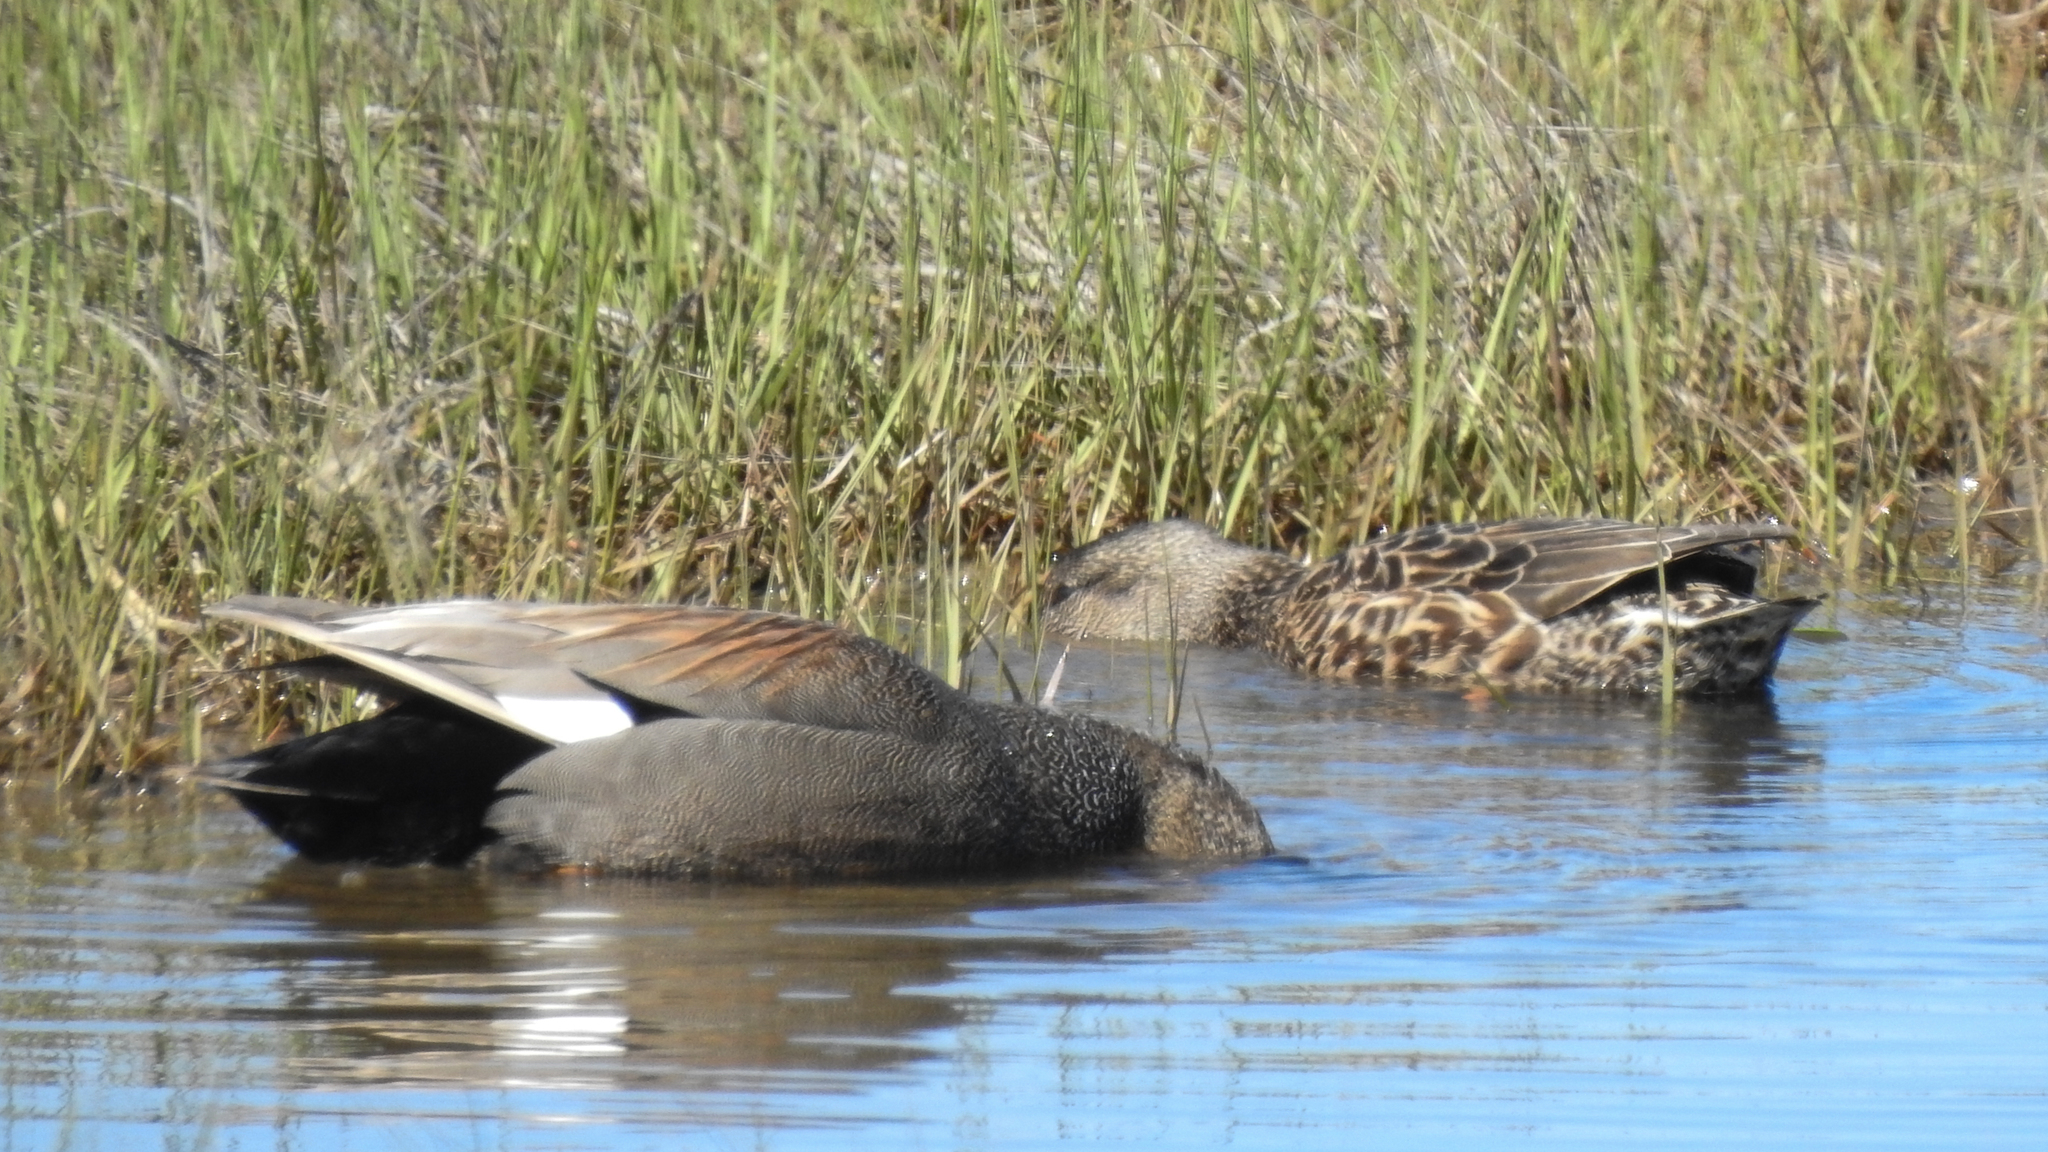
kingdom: Animalia
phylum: Chordata
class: Aves
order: Anseriformes
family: Anatidae
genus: Mareca
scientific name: Mareca strepera
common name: Gadwall
